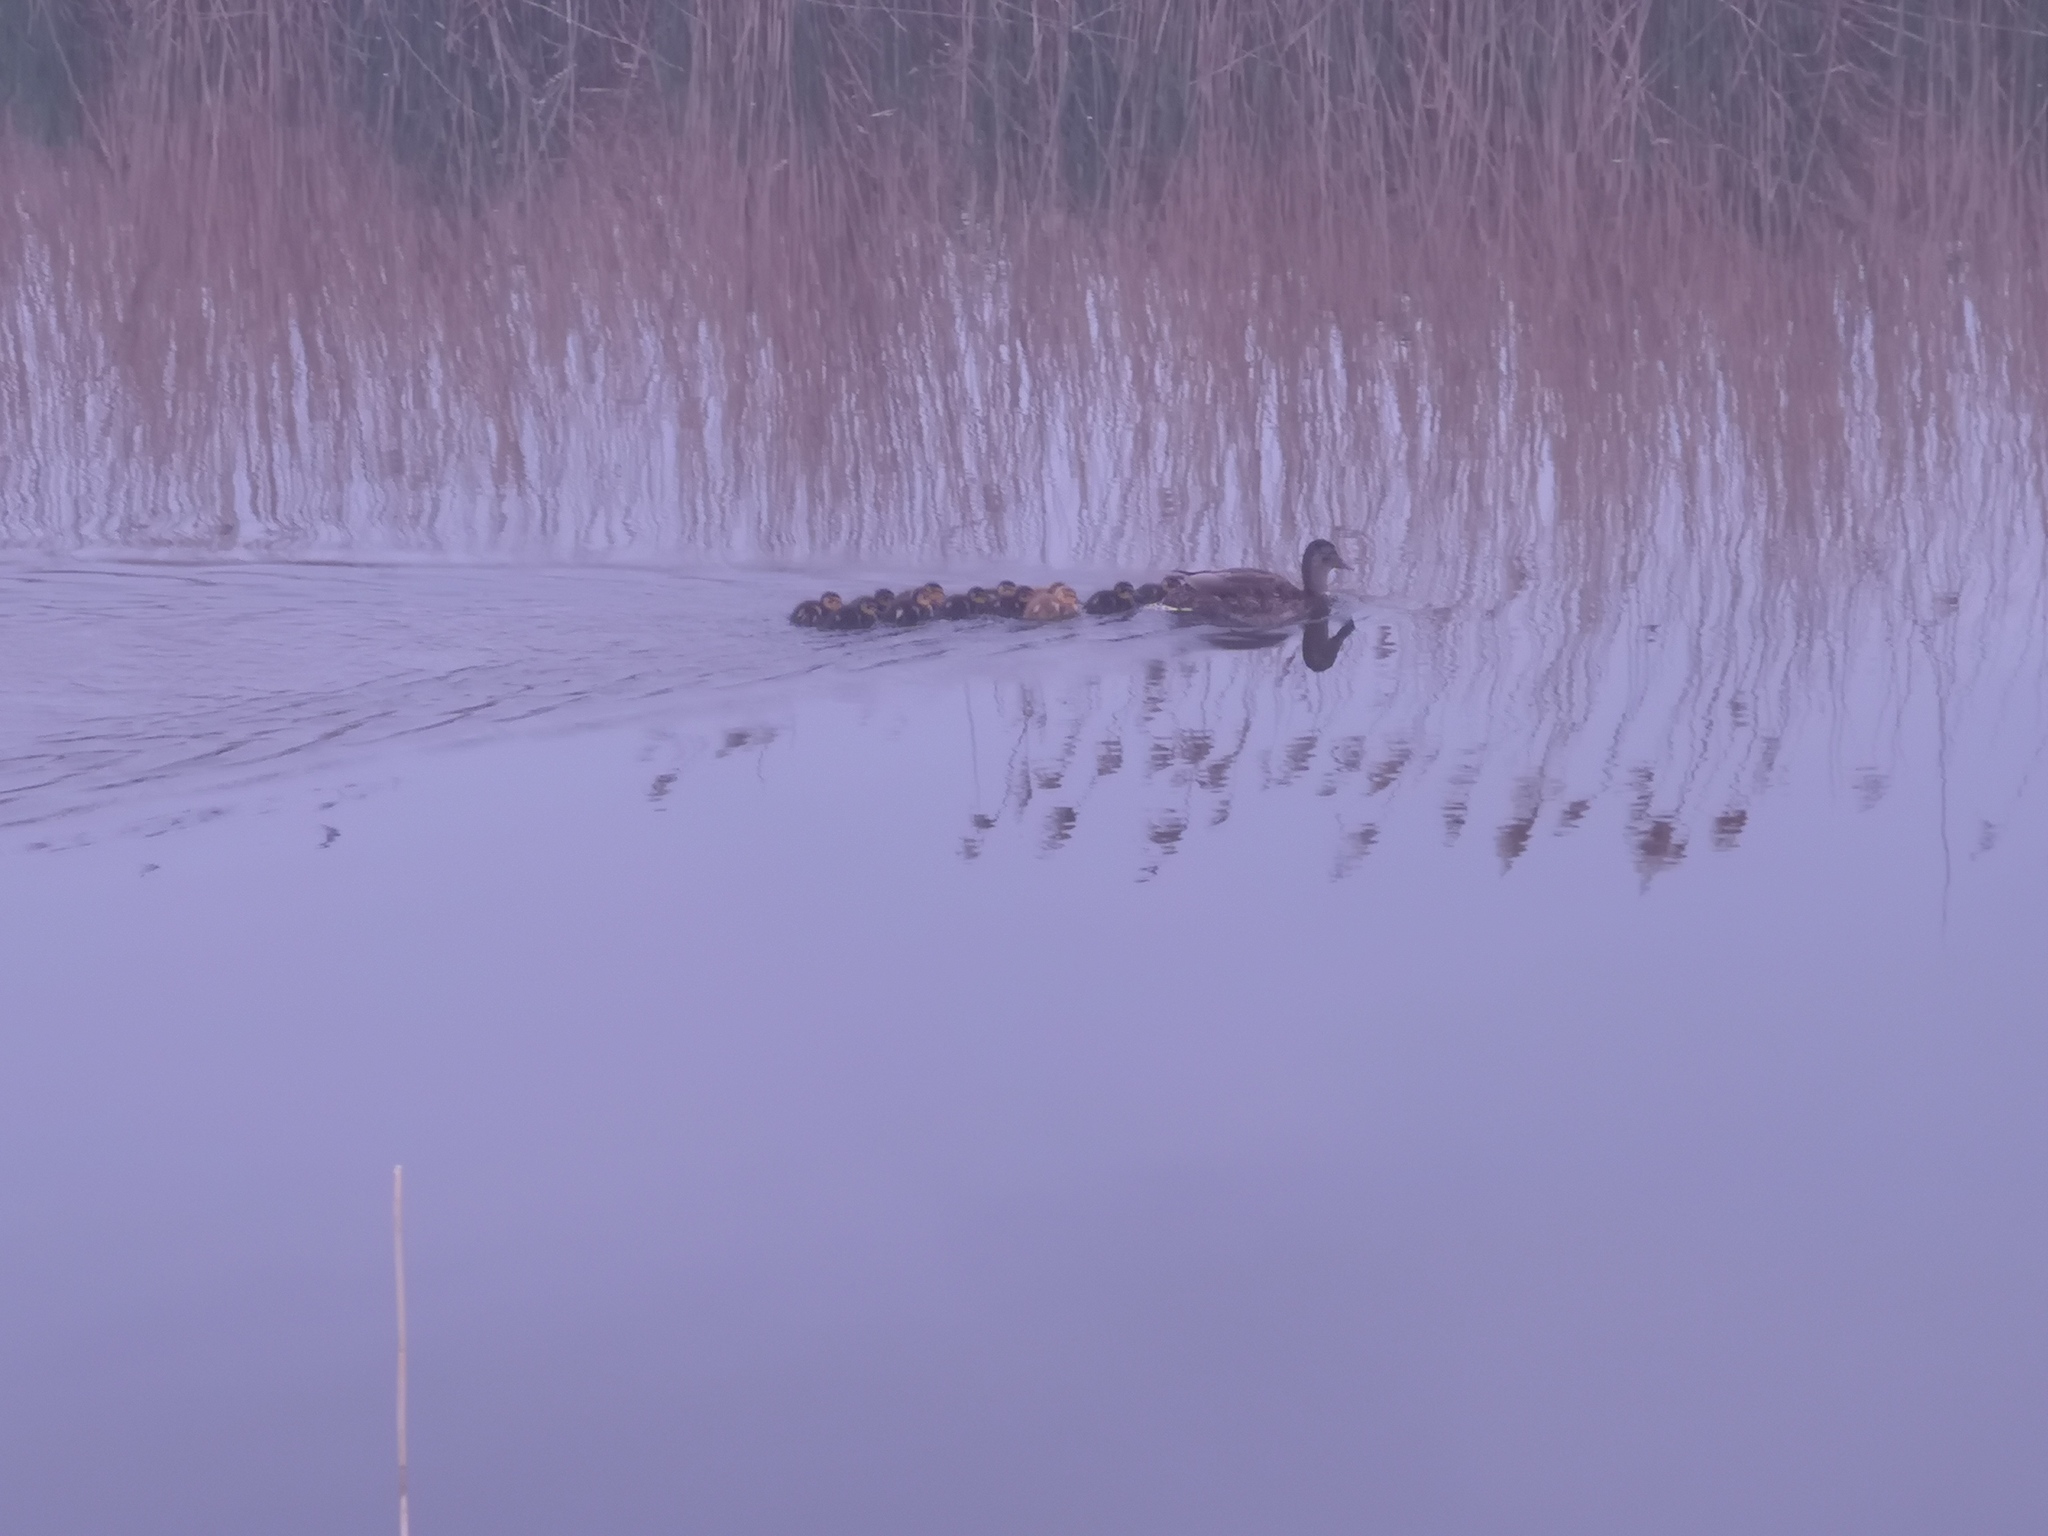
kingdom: Animalia
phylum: Chordata
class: Aves
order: Anseriformes
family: Anatidae
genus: Anas
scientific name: Anas platyrhynchos
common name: Mallard
